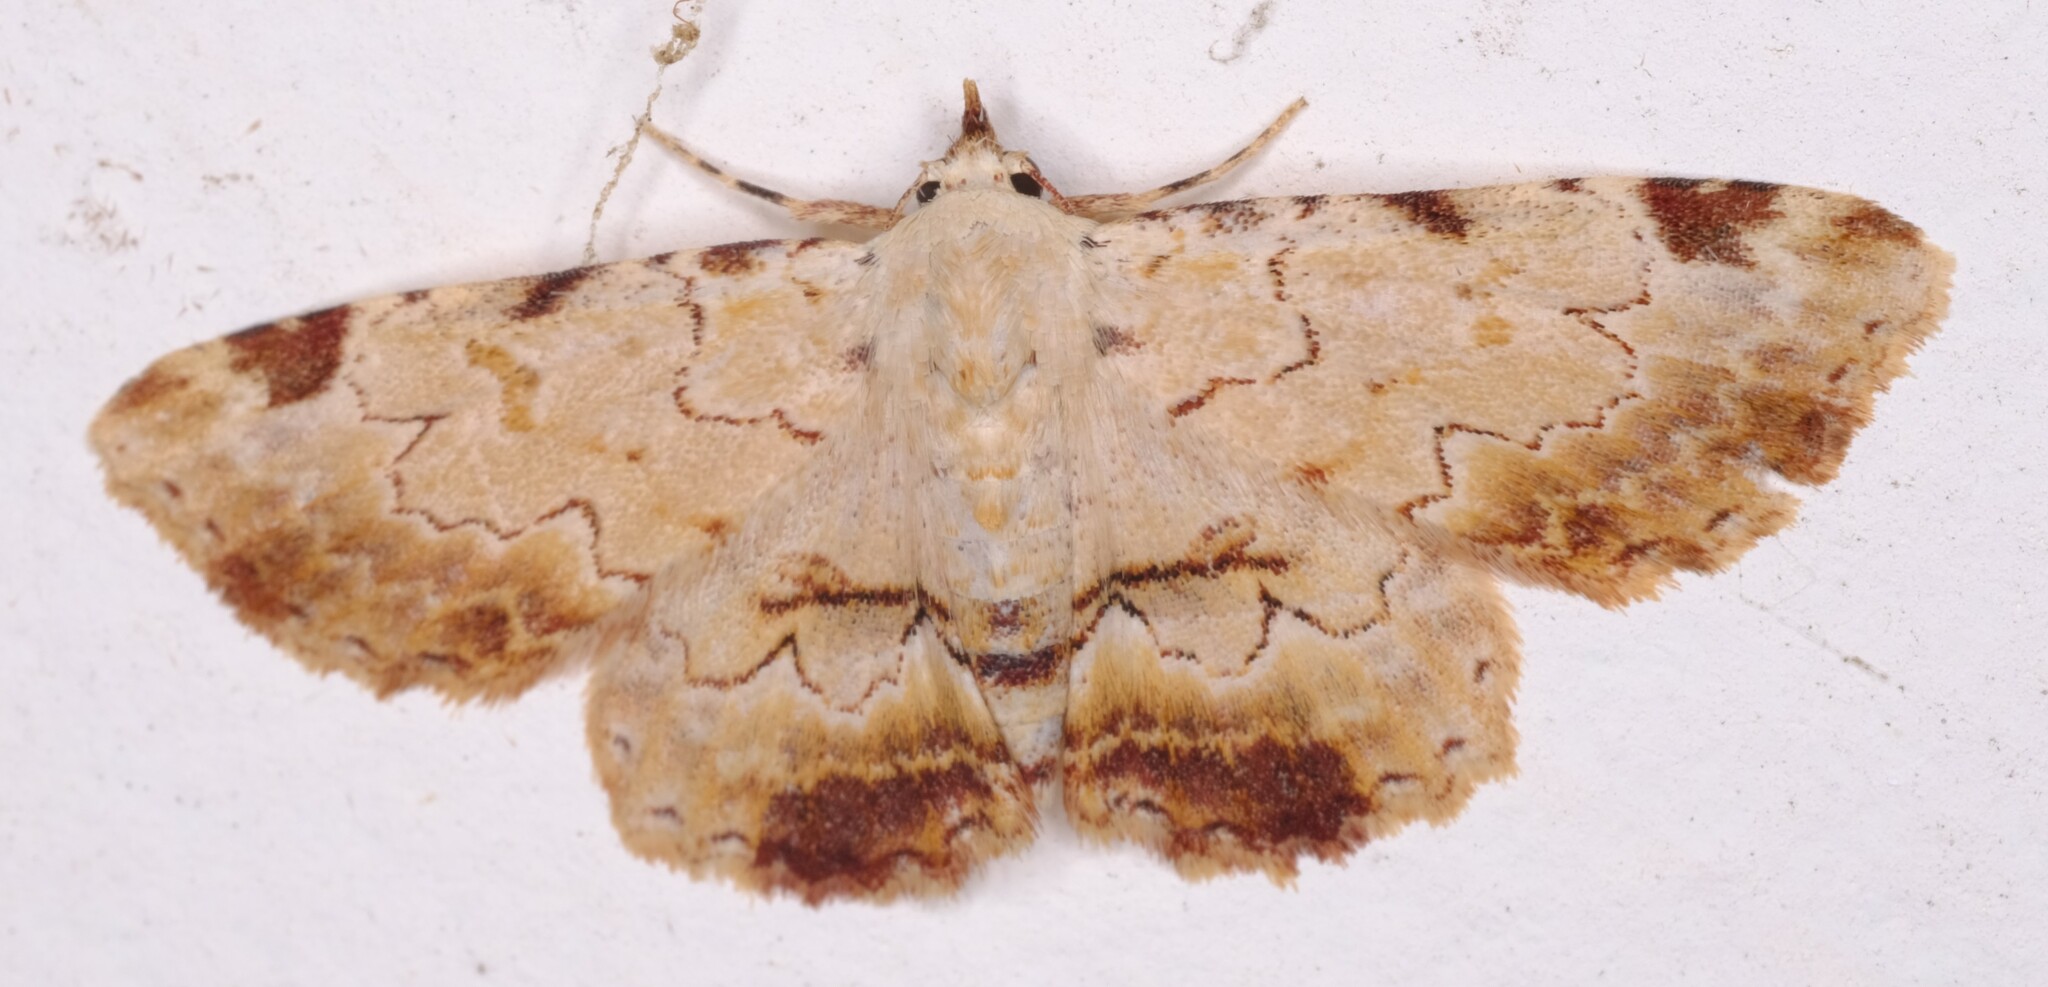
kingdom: Animalia
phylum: Arthropoda
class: Insecta
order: Lepidoptera
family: Erebidae
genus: Sandava
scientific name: Sandava xylistis
